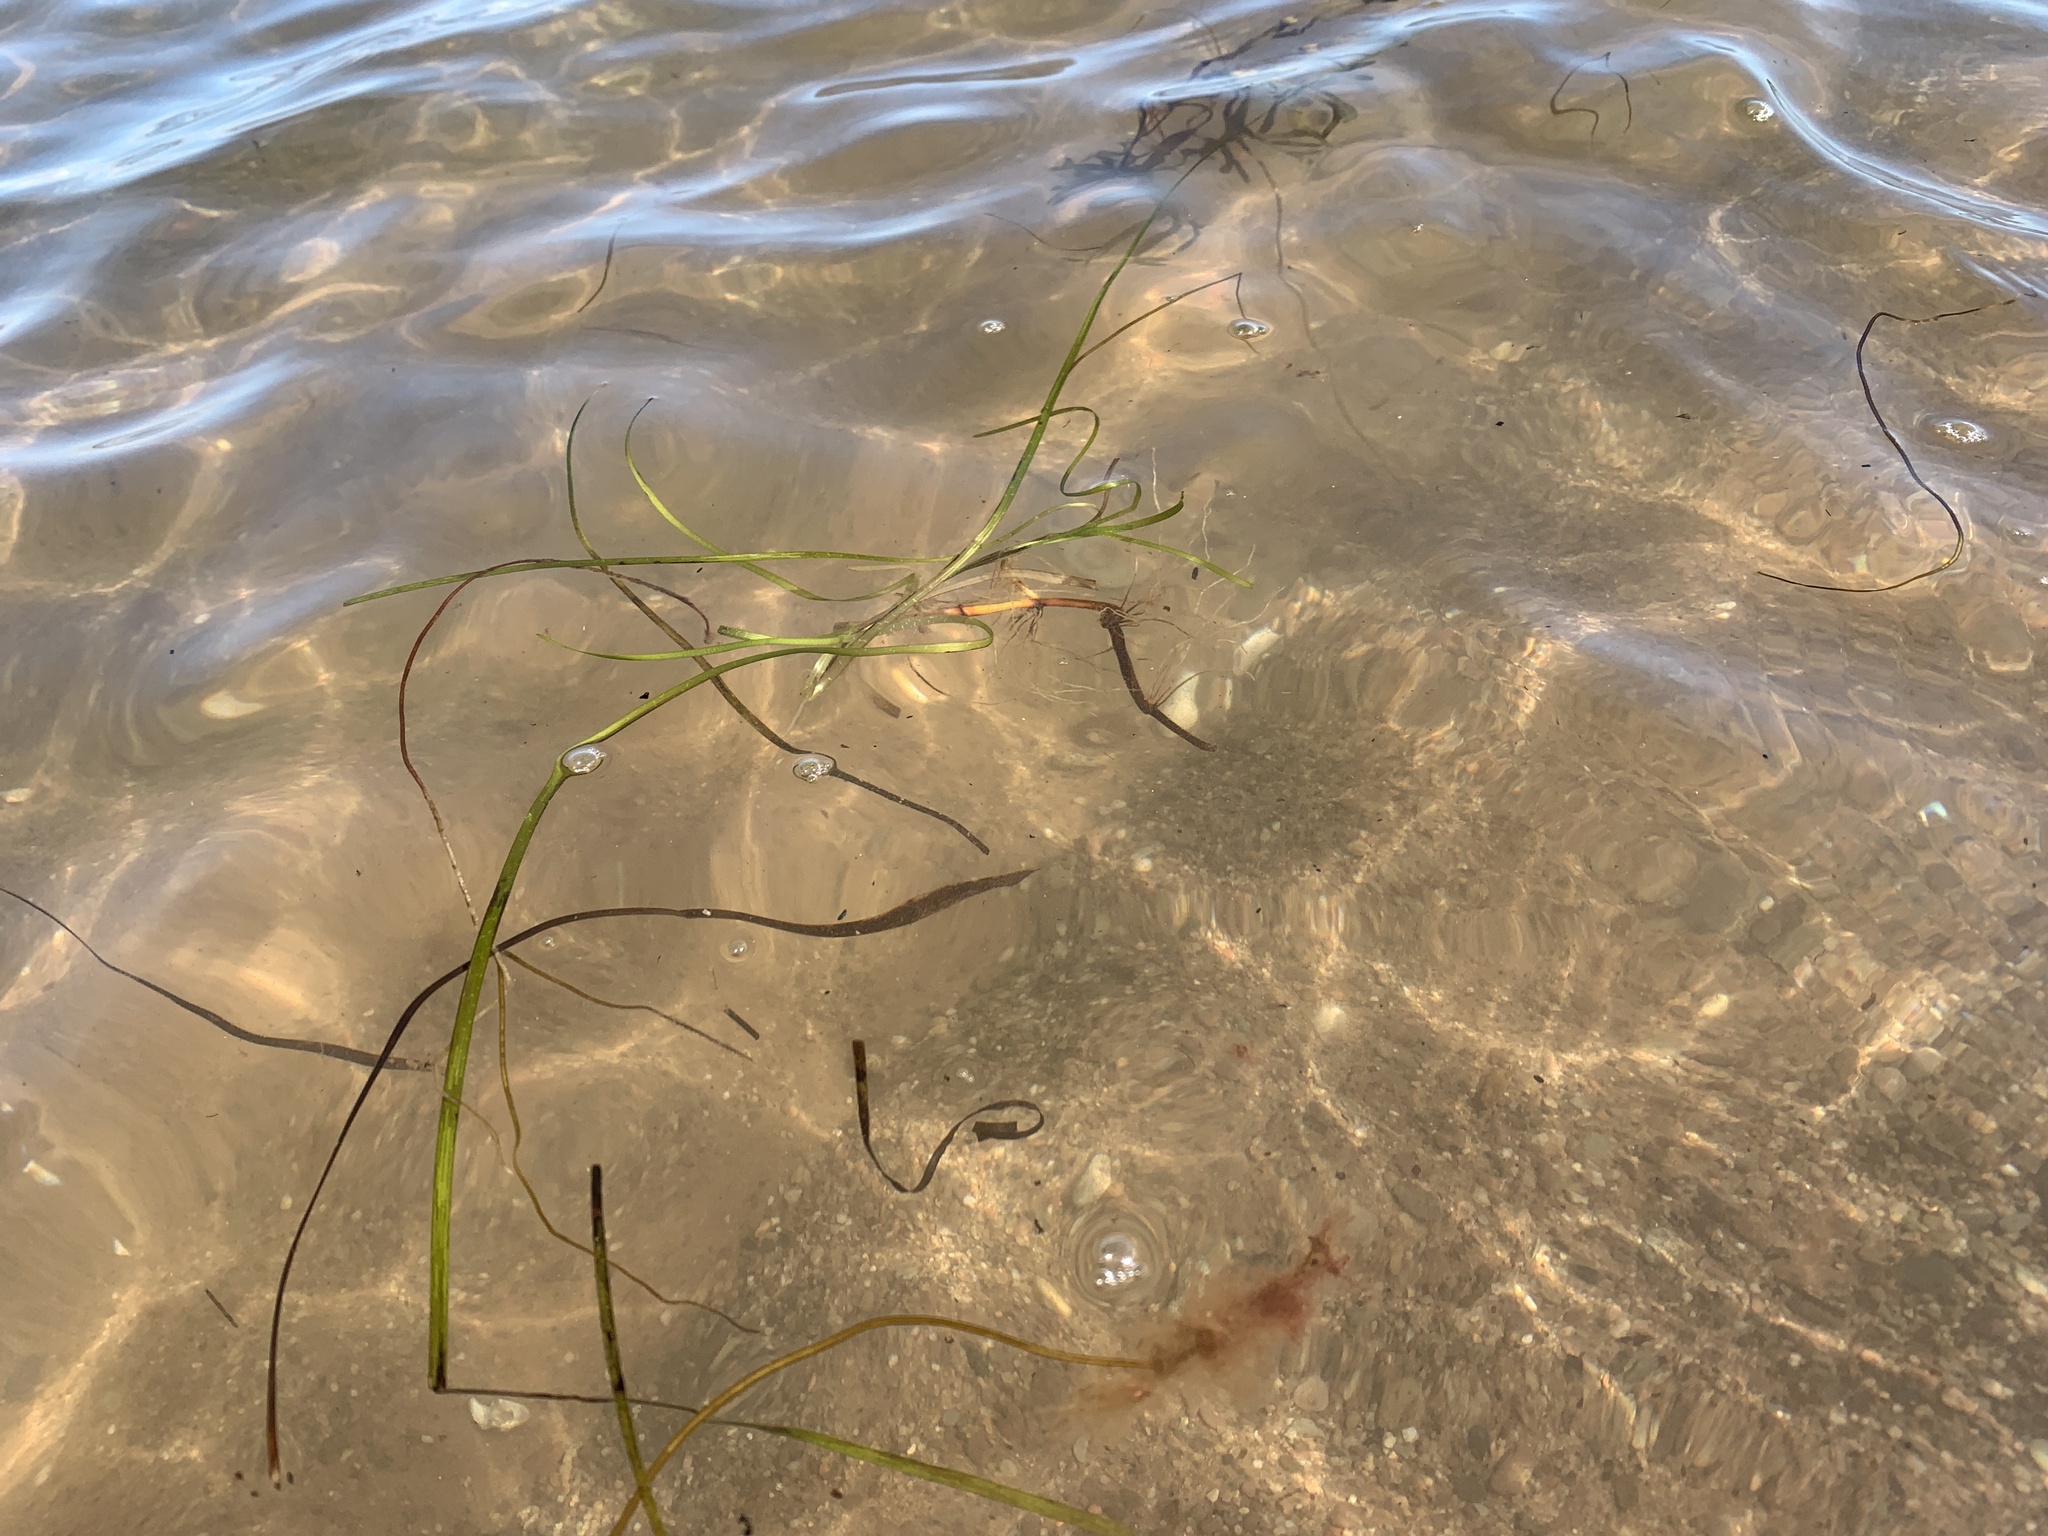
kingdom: Plantae
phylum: Tracheophyta
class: Liliopsida
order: Alismatales
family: Zosteraceae
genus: Zostera
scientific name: Zostera marina
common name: Eelgrass
